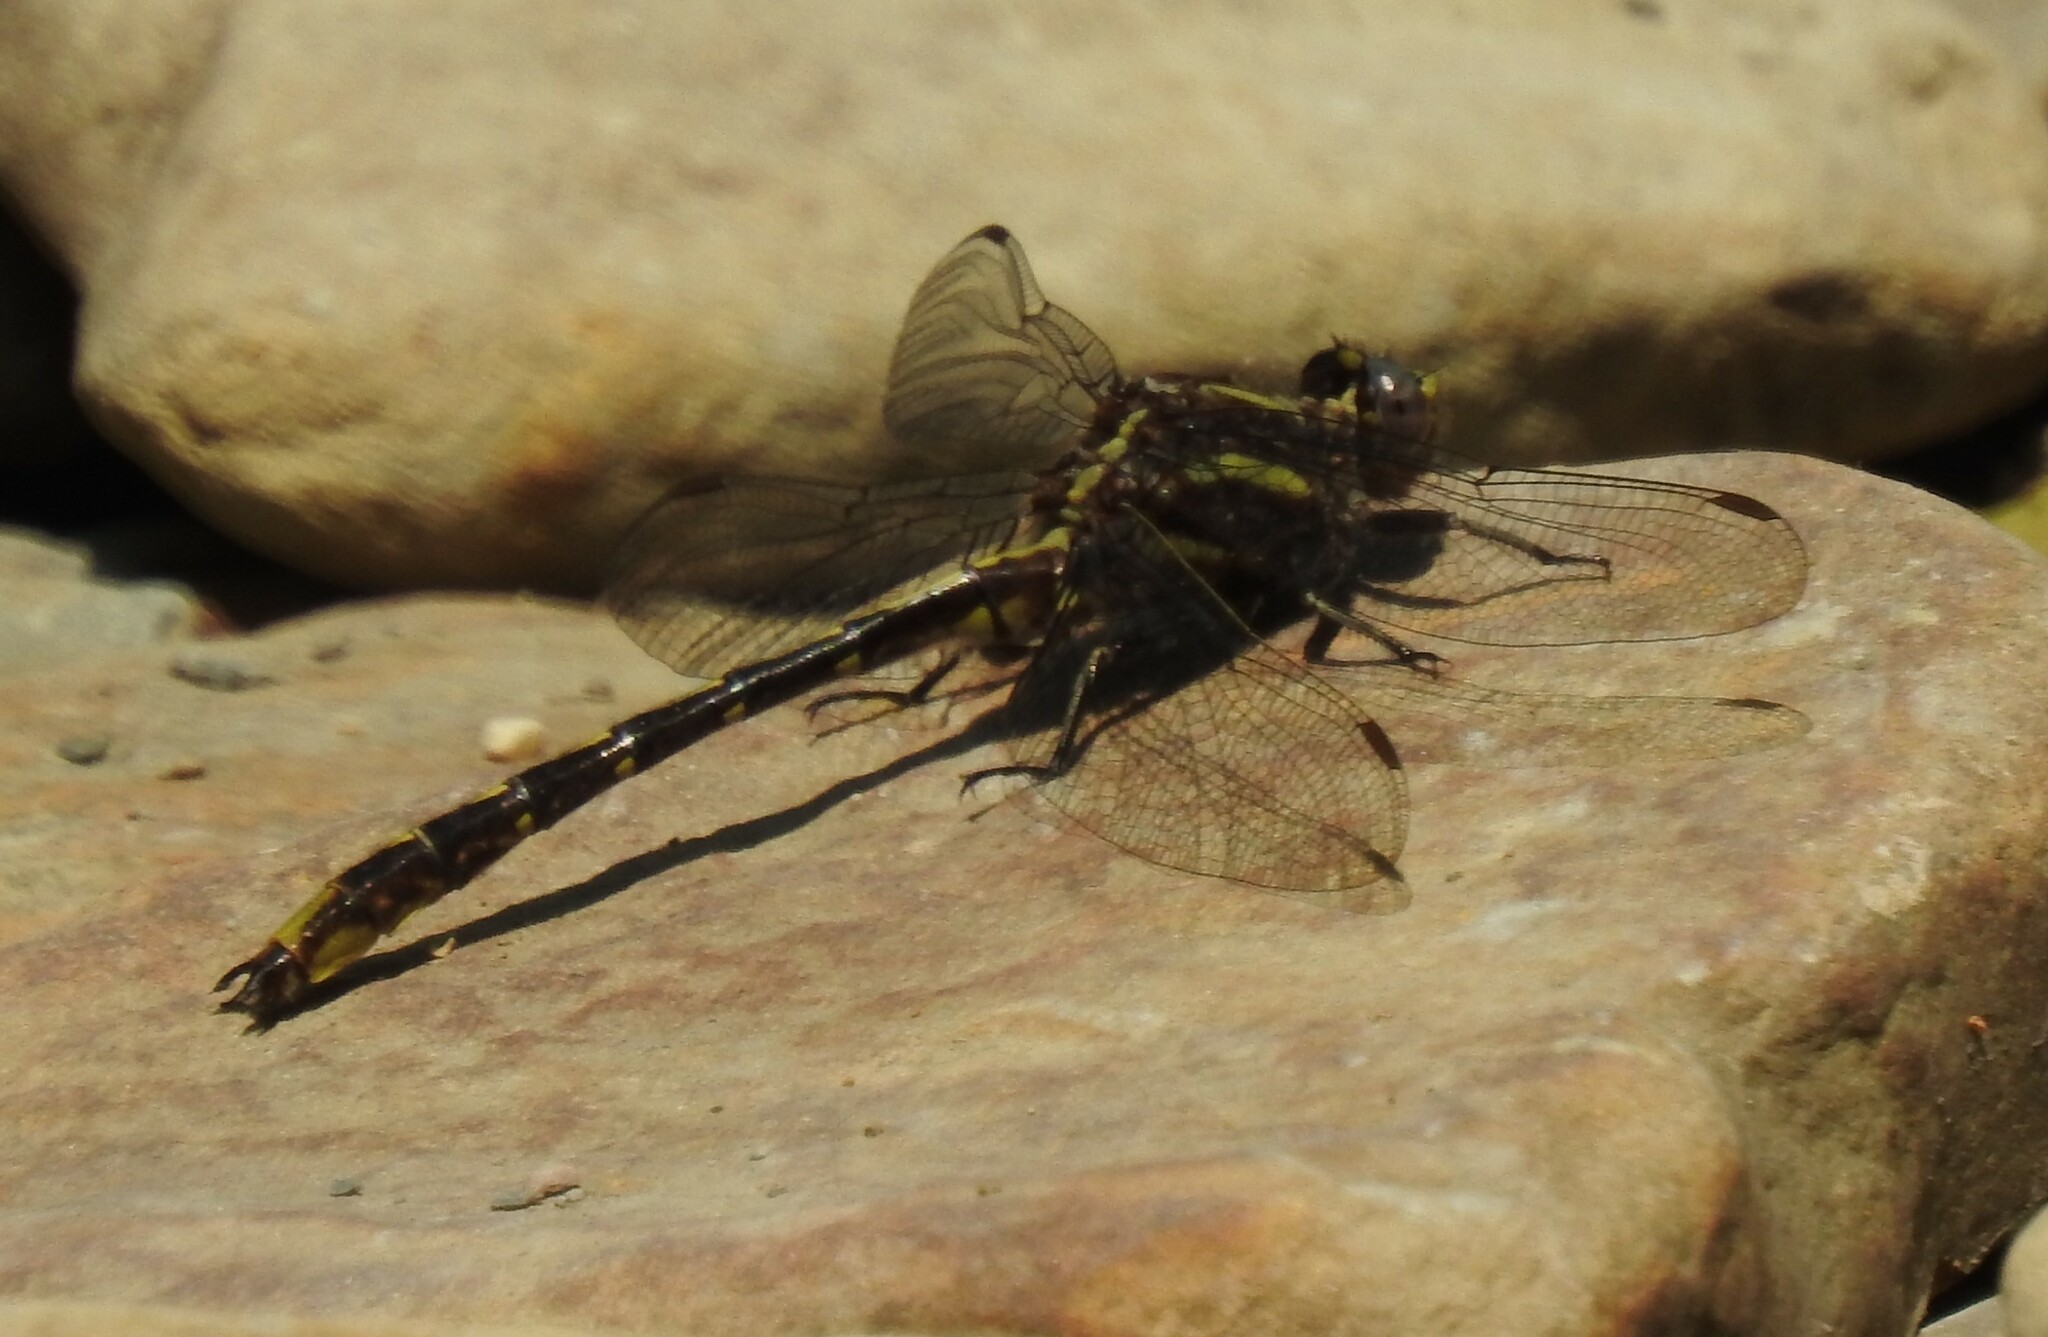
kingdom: Animalia
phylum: Arthropoda
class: Insecta
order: Odonata
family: Gomphidae
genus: Phanogomphus
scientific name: Phanogomphus lividus
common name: Ashy clubtail
